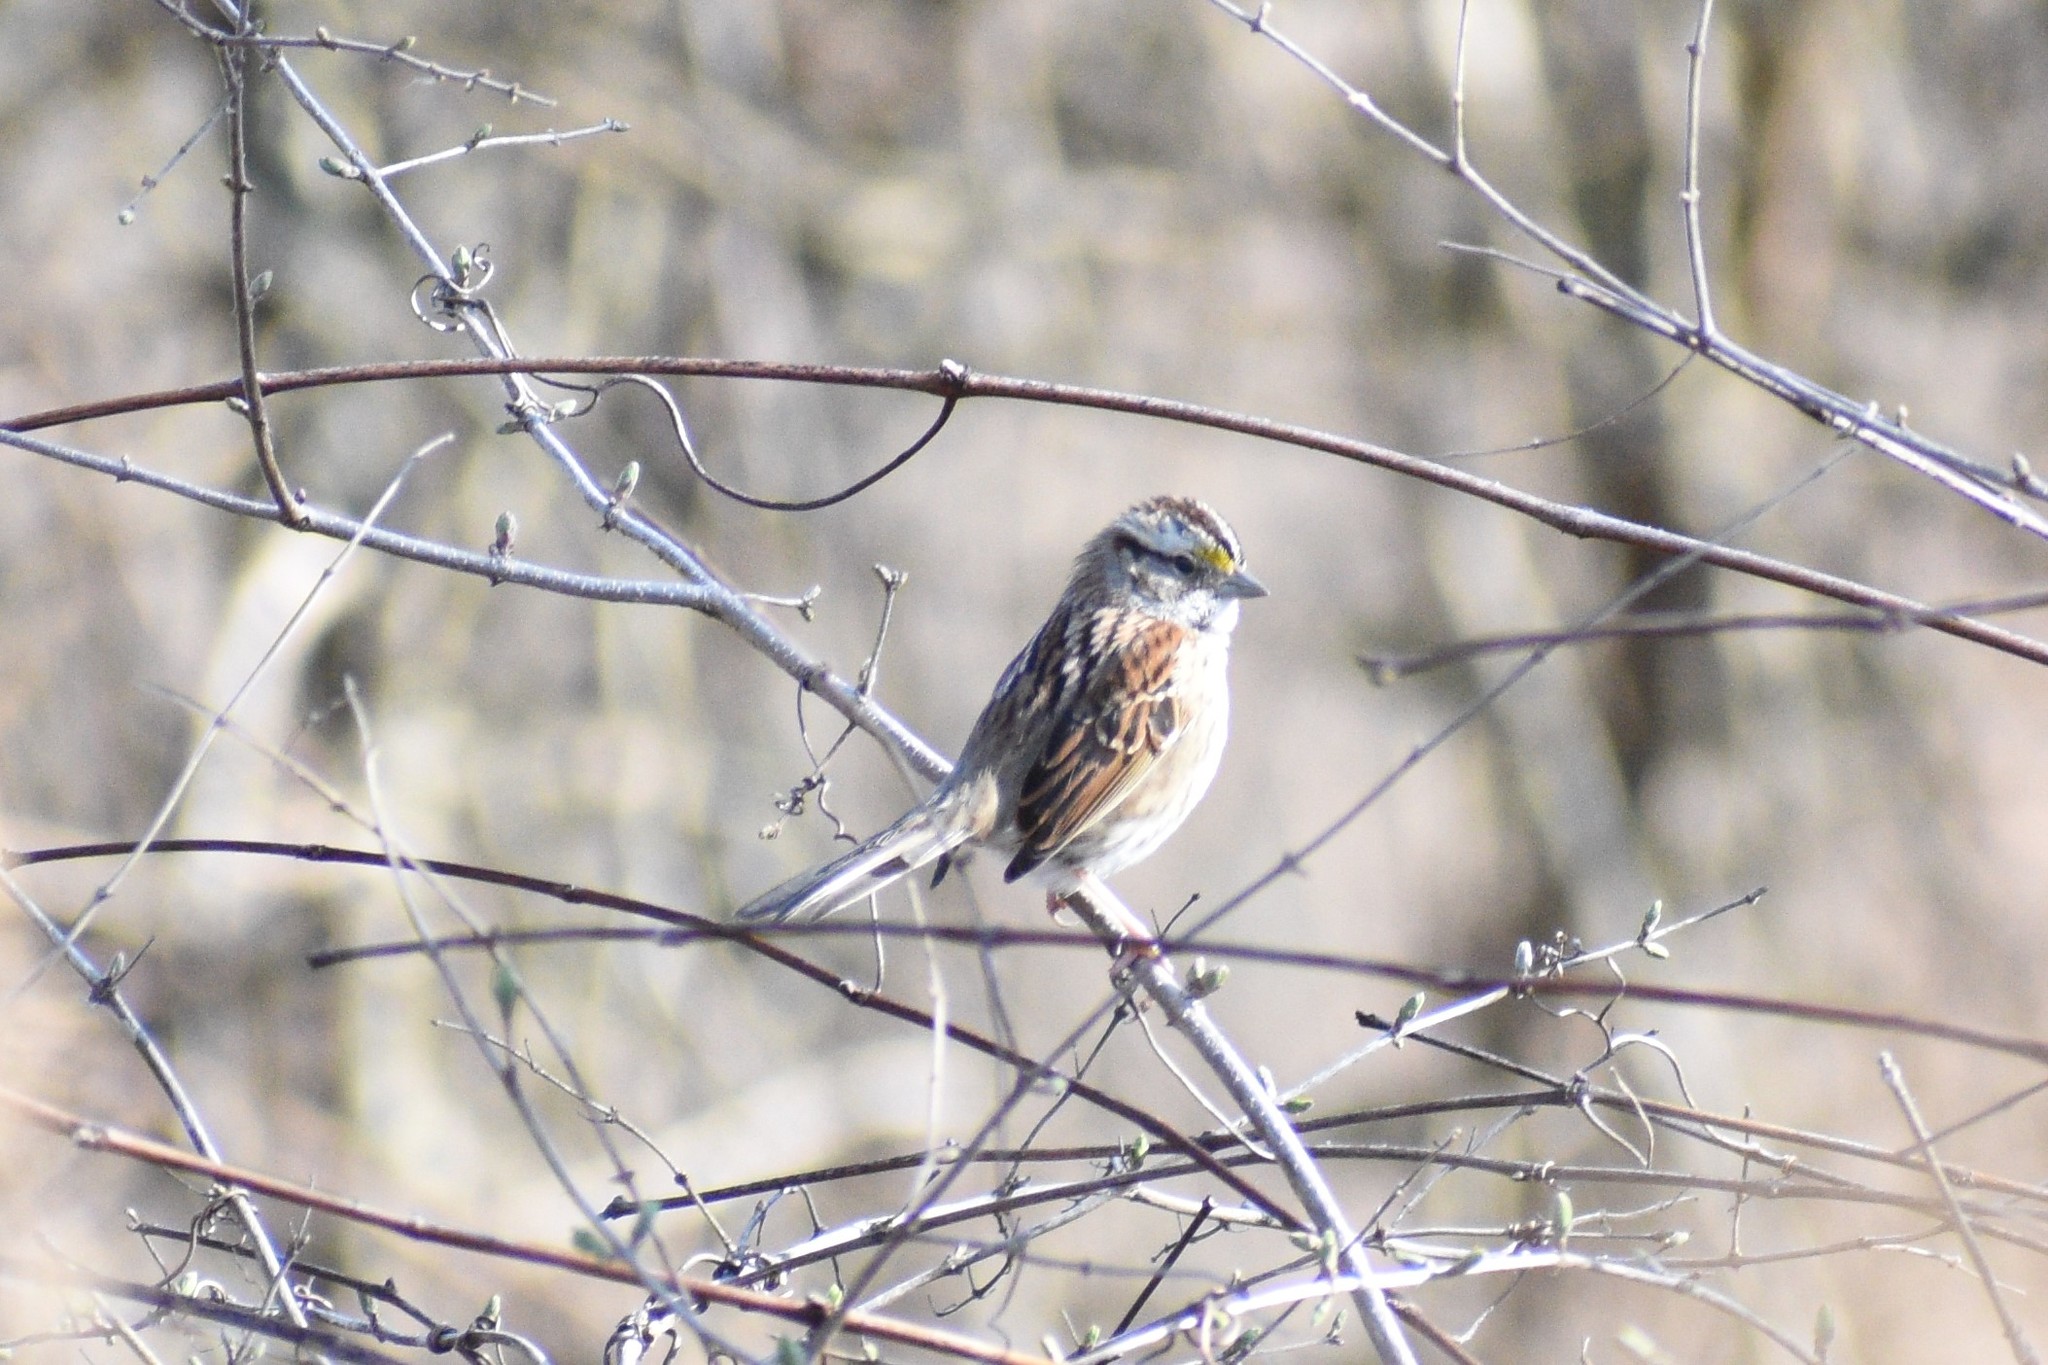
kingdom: Animalia
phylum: Chordata
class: Aves
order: Passeriformes
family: Passerellidae
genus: Zonotrichia
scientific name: Zonotrichia albicollis
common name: White-throated sparrow
